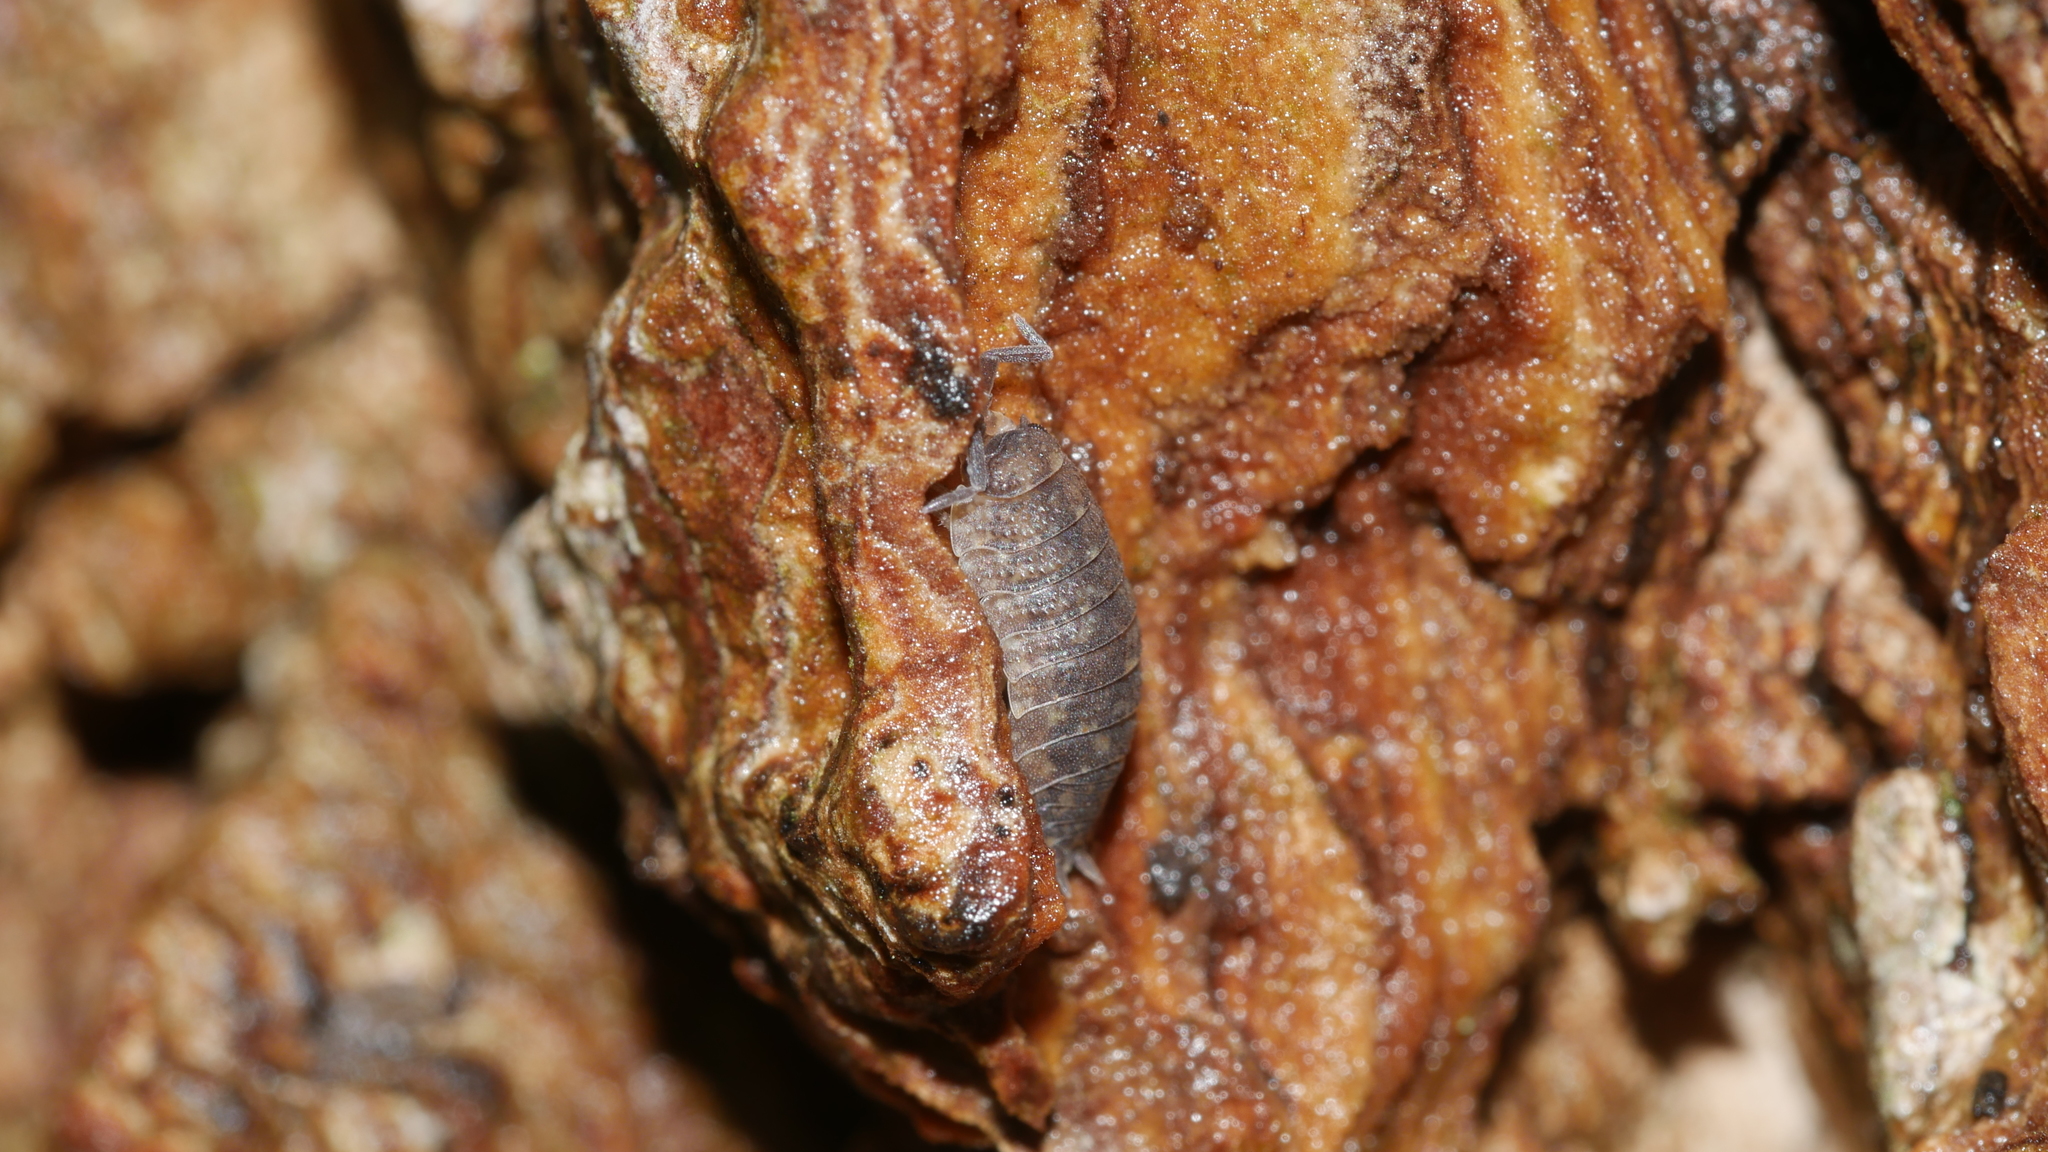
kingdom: Animalia
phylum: Arthropoda
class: Malacostraca
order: Isopoda
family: Porcellionidae
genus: Porcellio
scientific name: Porcellio scaber
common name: Common rough woodlouse
